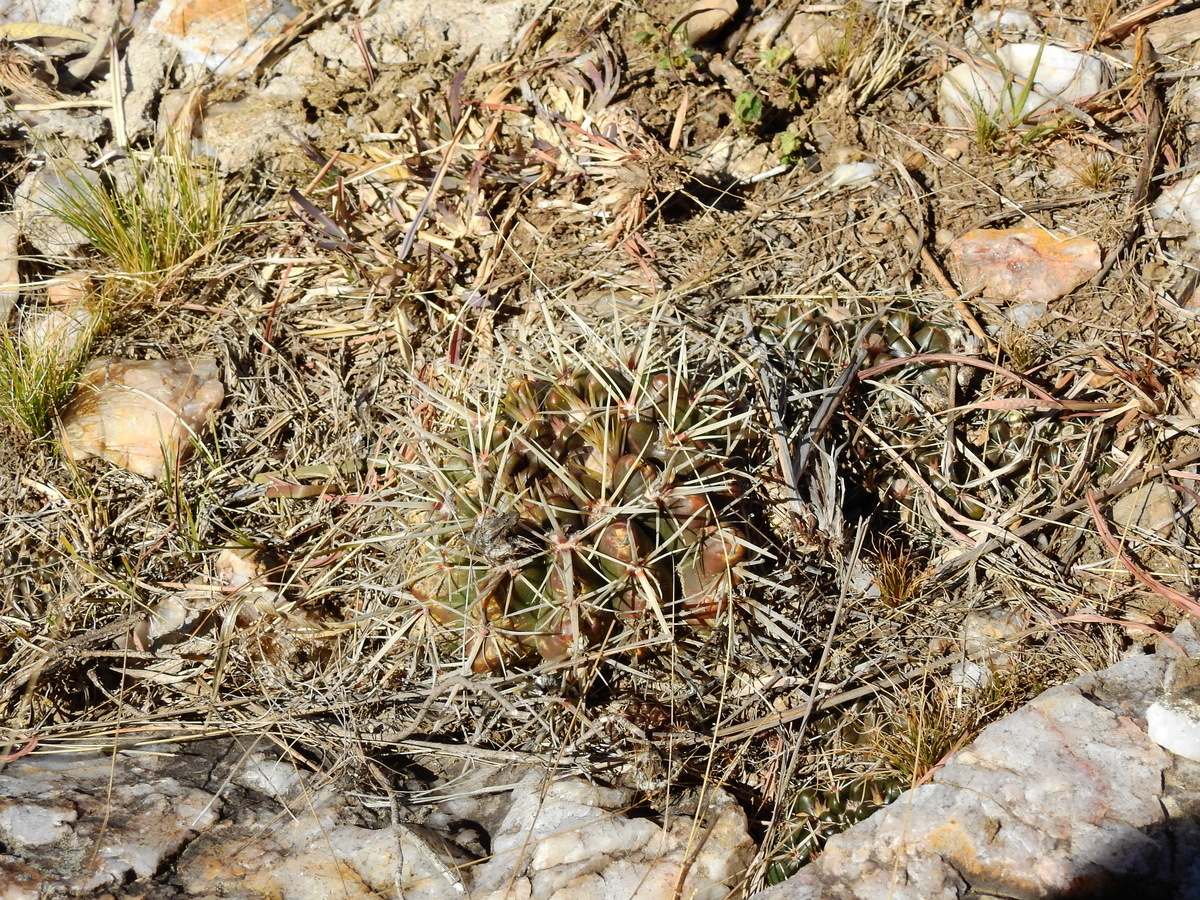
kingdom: Plantae
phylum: Tracheophyta
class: Magnoliopsida
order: Caryophyllales
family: Cactaceae
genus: Parodia
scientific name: Parodia mammulosa
